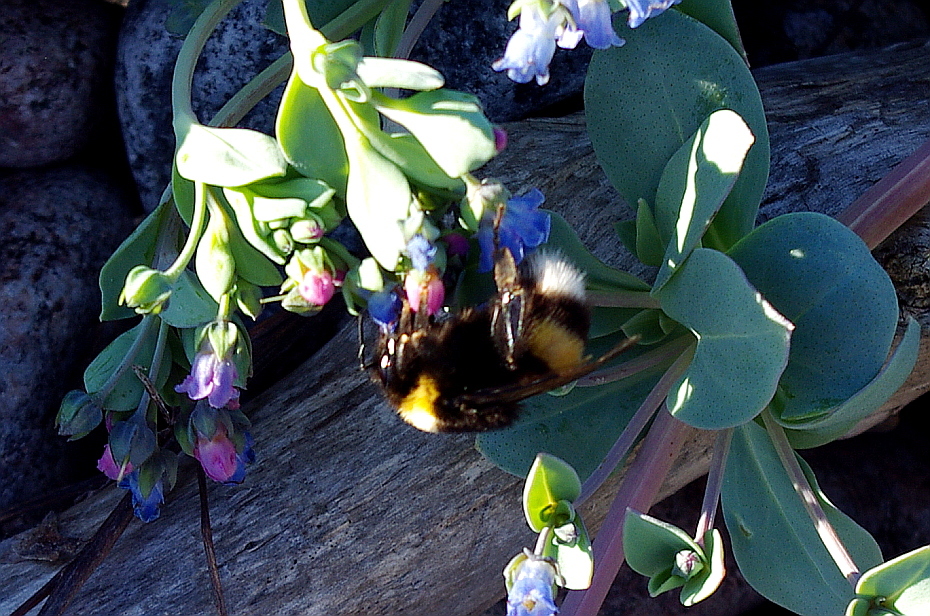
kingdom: Plantae
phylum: Tracheophyta
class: Magnoliopsida
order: Boraginales
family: Boraginaceae
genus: Mertensia
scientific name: Mertensia maritima
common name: Oysterplant
